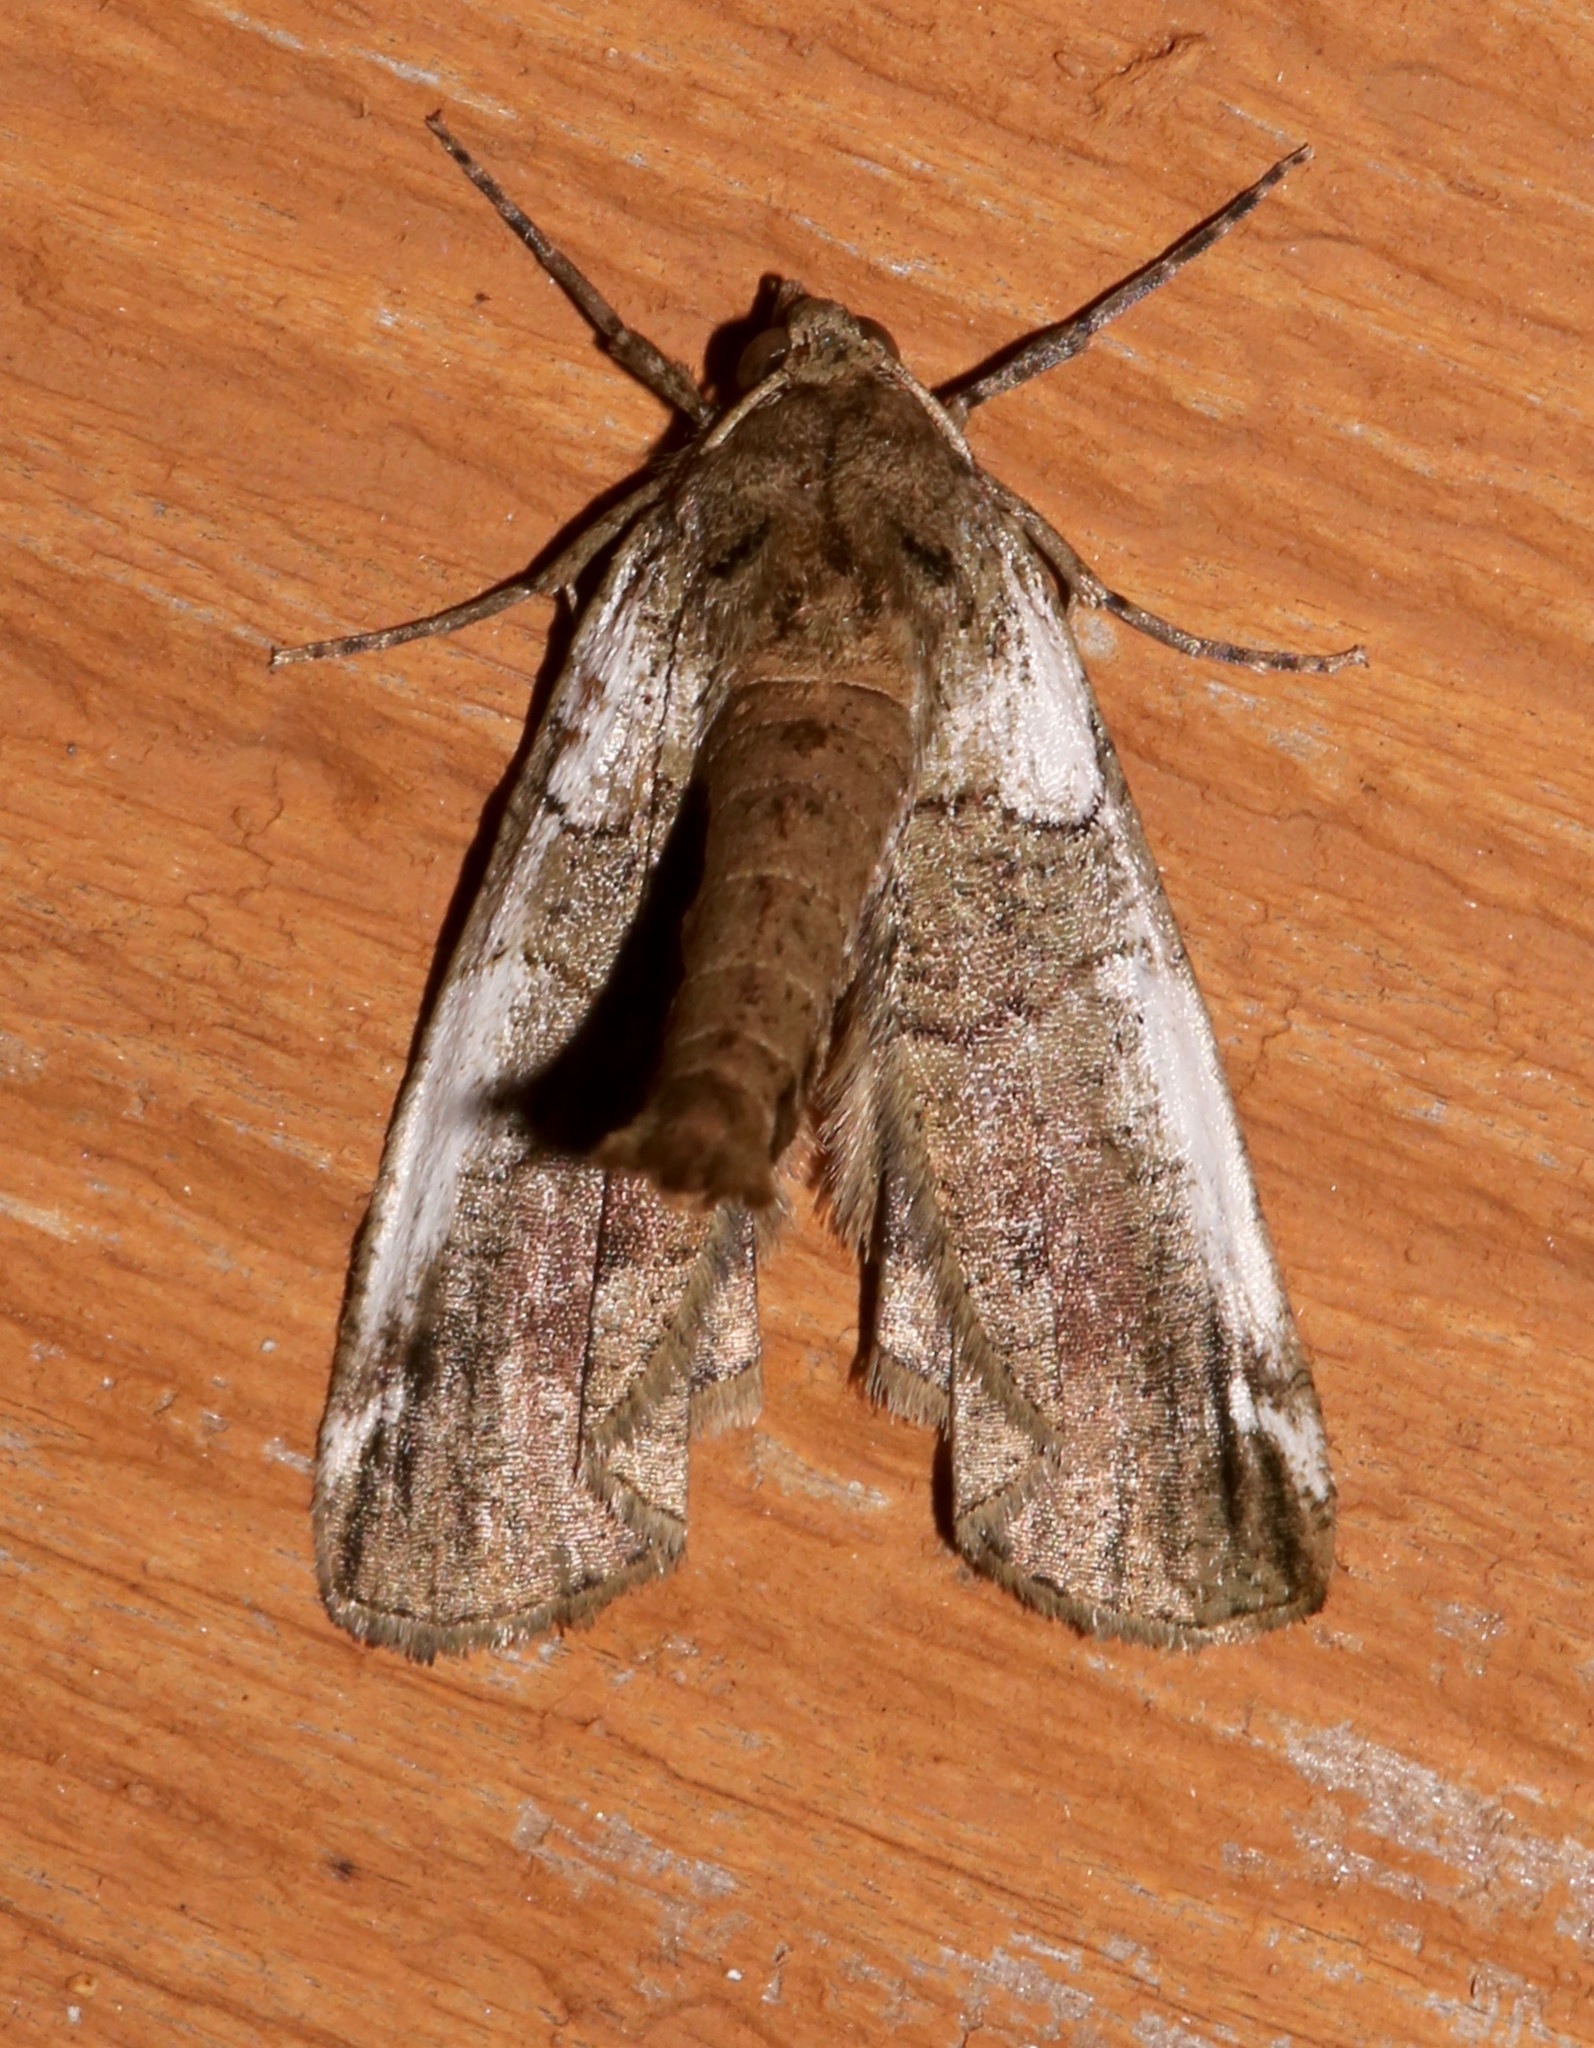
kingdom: Animalia
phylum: Arthropoda
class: Insecta
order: Lepidoptera
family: Geometridae
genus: Ceratonyx
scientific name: Ceratonyx satanaria
